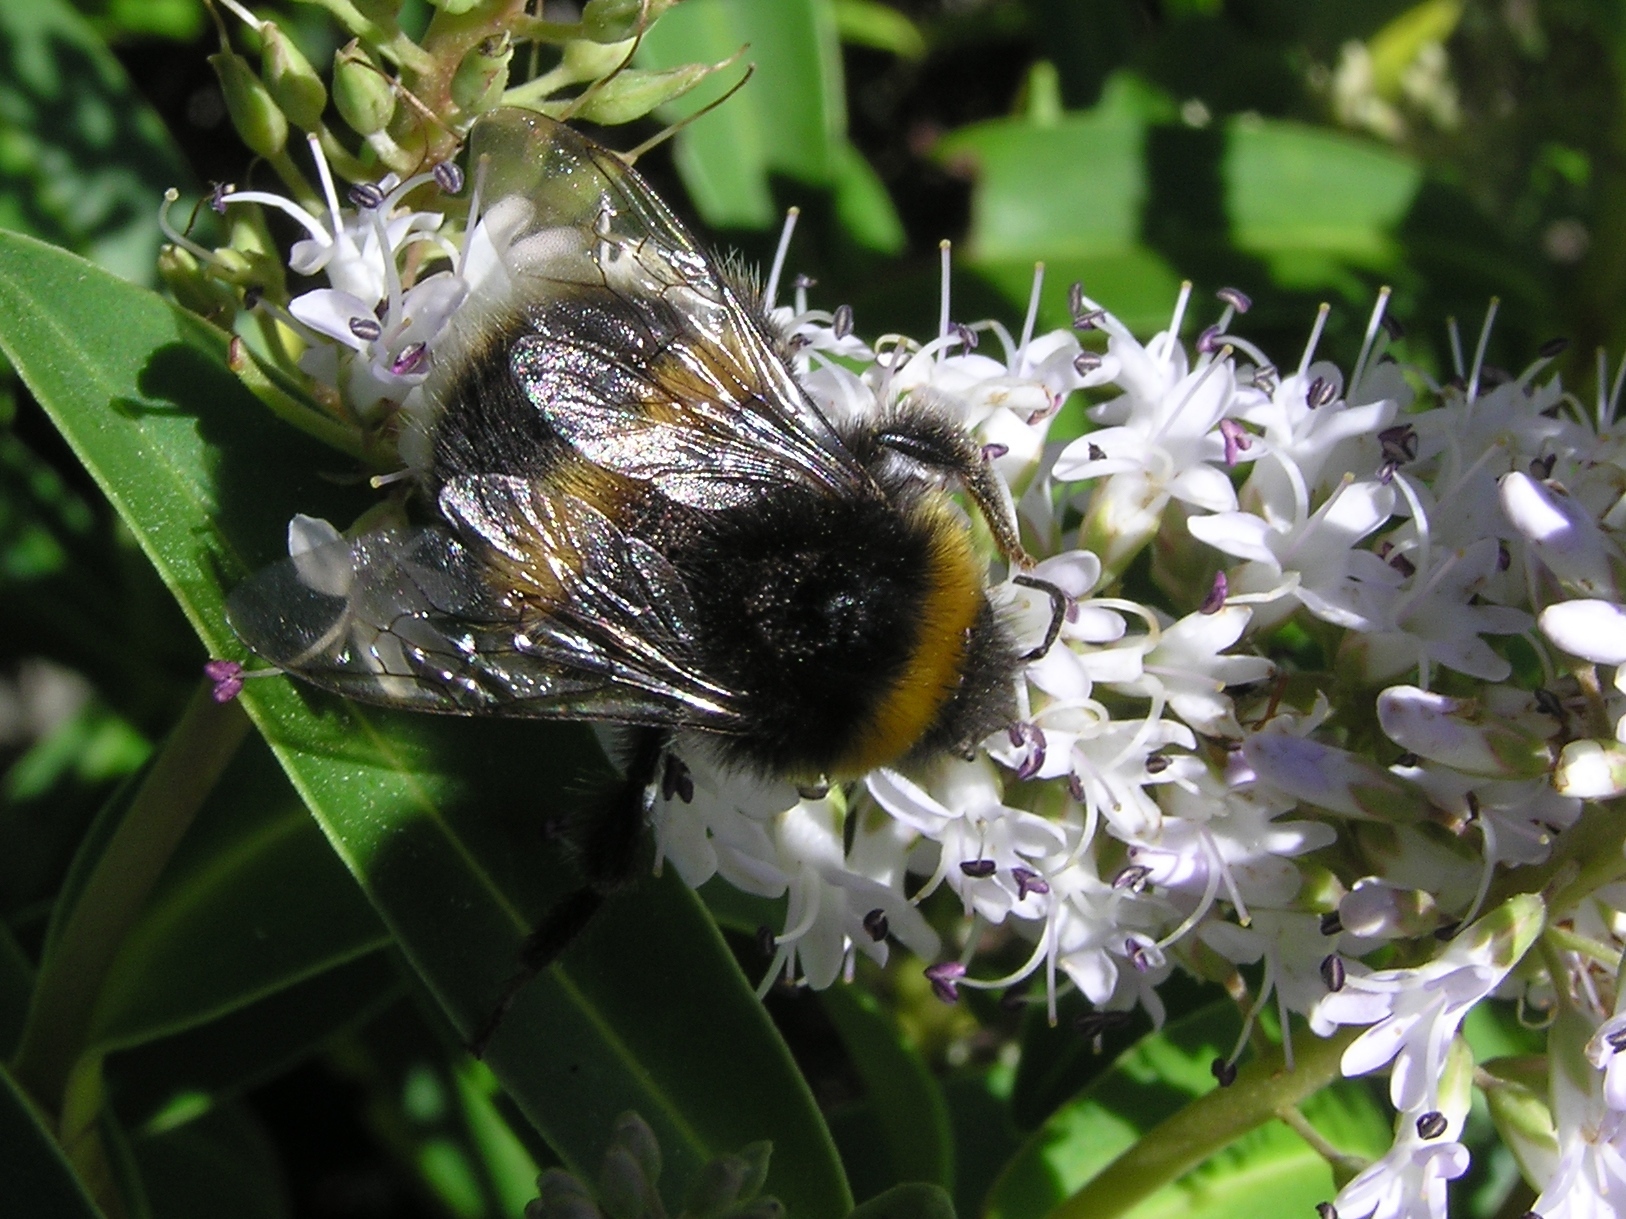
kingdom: Animalia
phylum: Arthropoda
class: Insecta
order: Hymenoptera
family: Apidae
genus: Bombus
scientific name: Bombus terrestris
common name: Buff-tailed bumblebee
